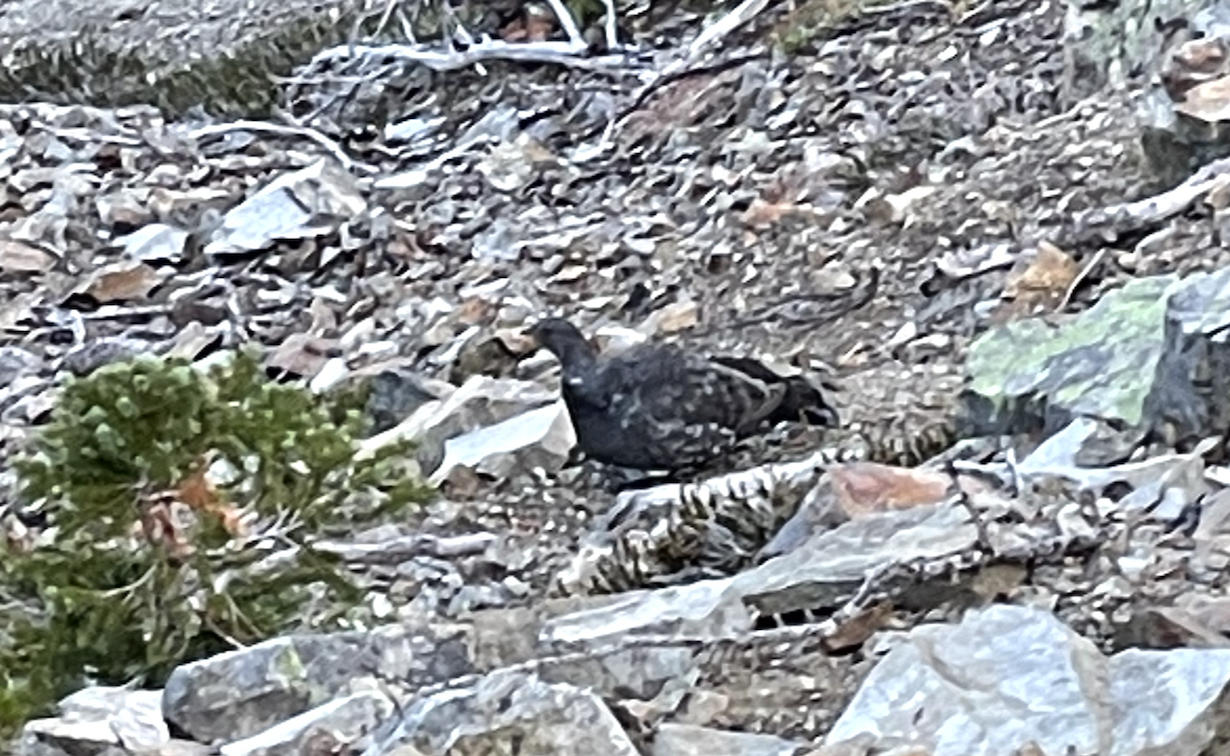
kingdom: Animalia
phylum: Chordata
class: Aves
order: Galliformes
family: Phasianidae
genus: Dendragapus
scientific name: Dendragapus obscurus
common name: Dusky grouse
